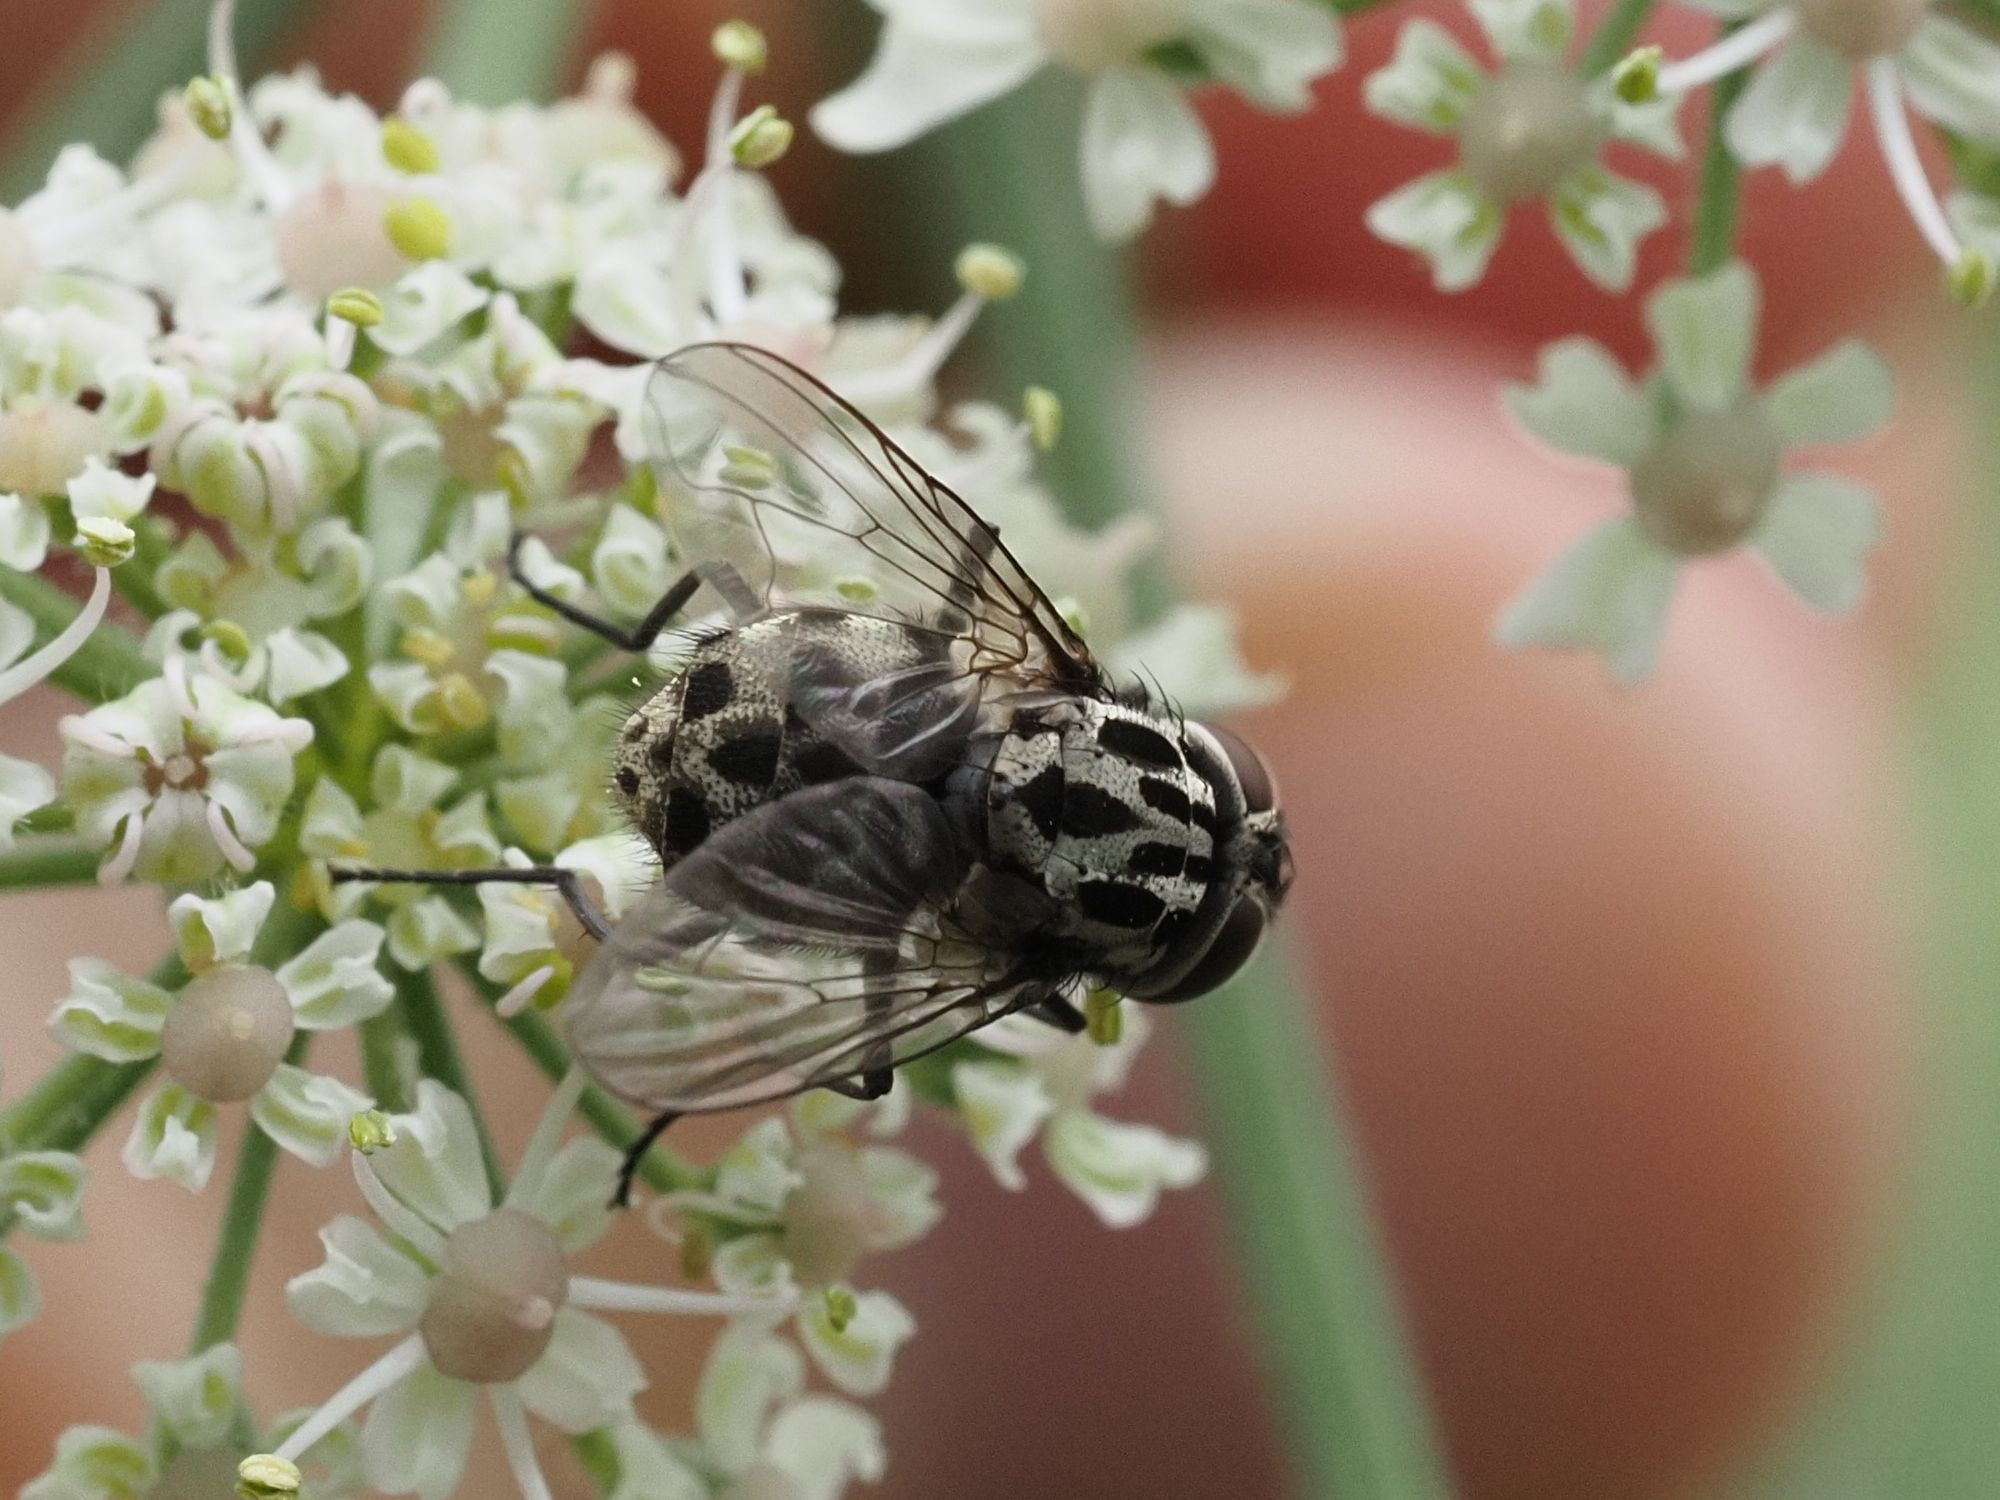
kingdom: Animalia
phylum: Arthropoda
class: Insecta
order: Diptera
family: Muscidae
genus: Graphomya
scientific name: Graphomya maculata
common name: Muscid fly
